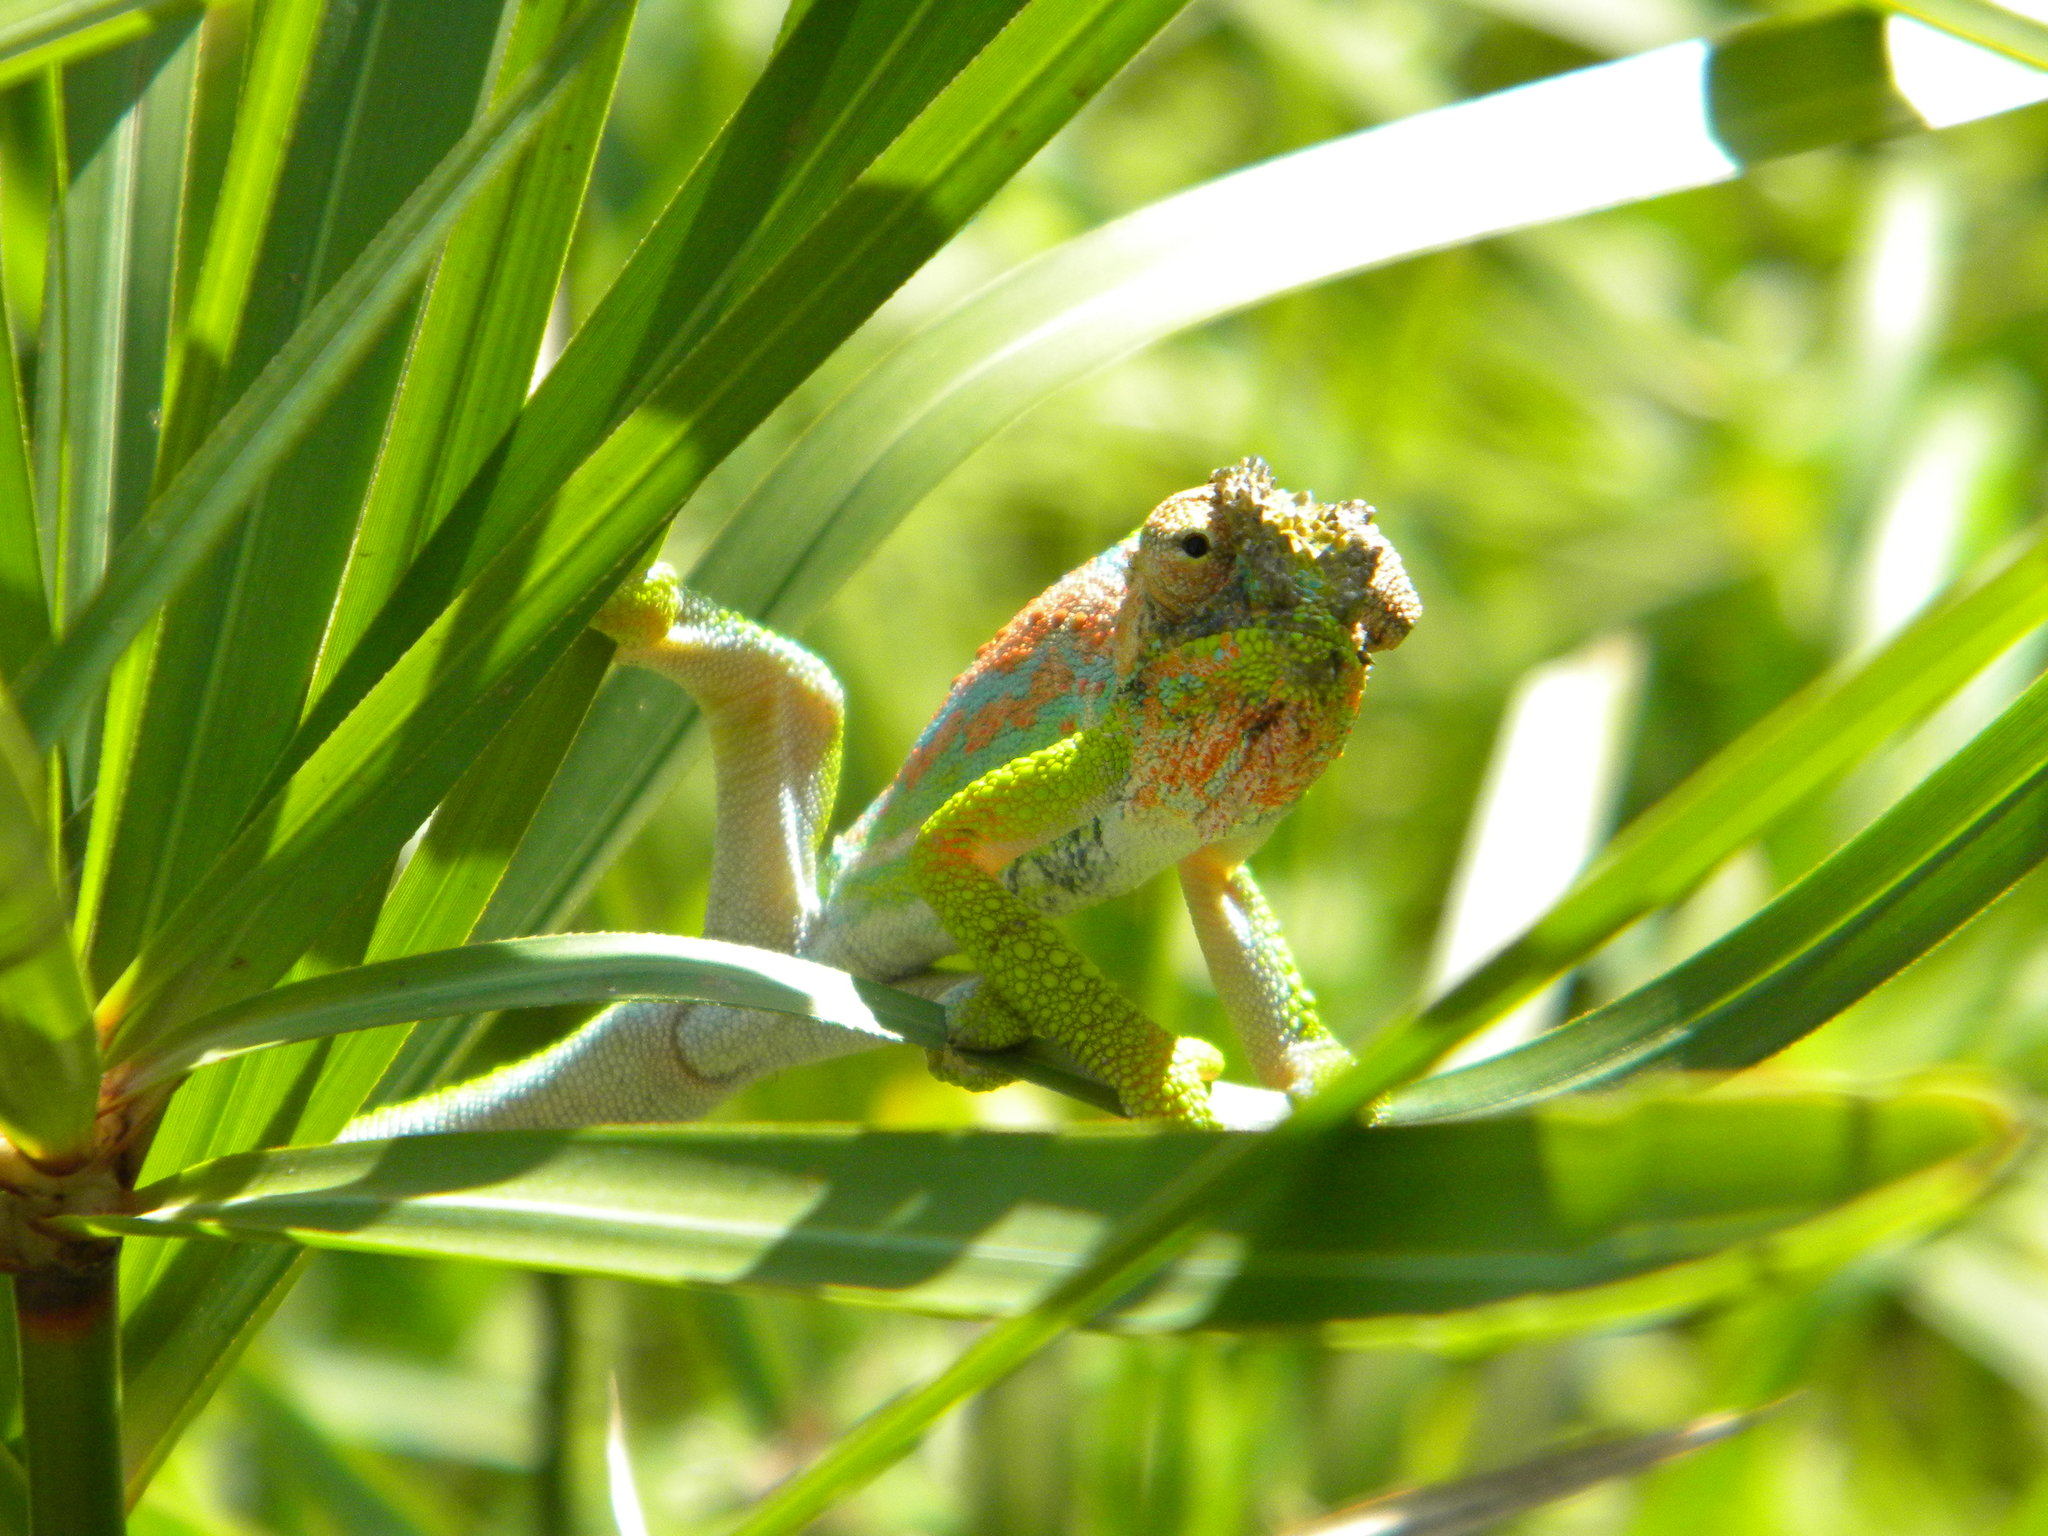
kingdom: Animalia
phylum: Chordata
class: Squamata
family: Chamaeleonidae
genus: Bradypodion
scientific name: Bradypodion pumilum
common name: Cape dwarf chameleon
